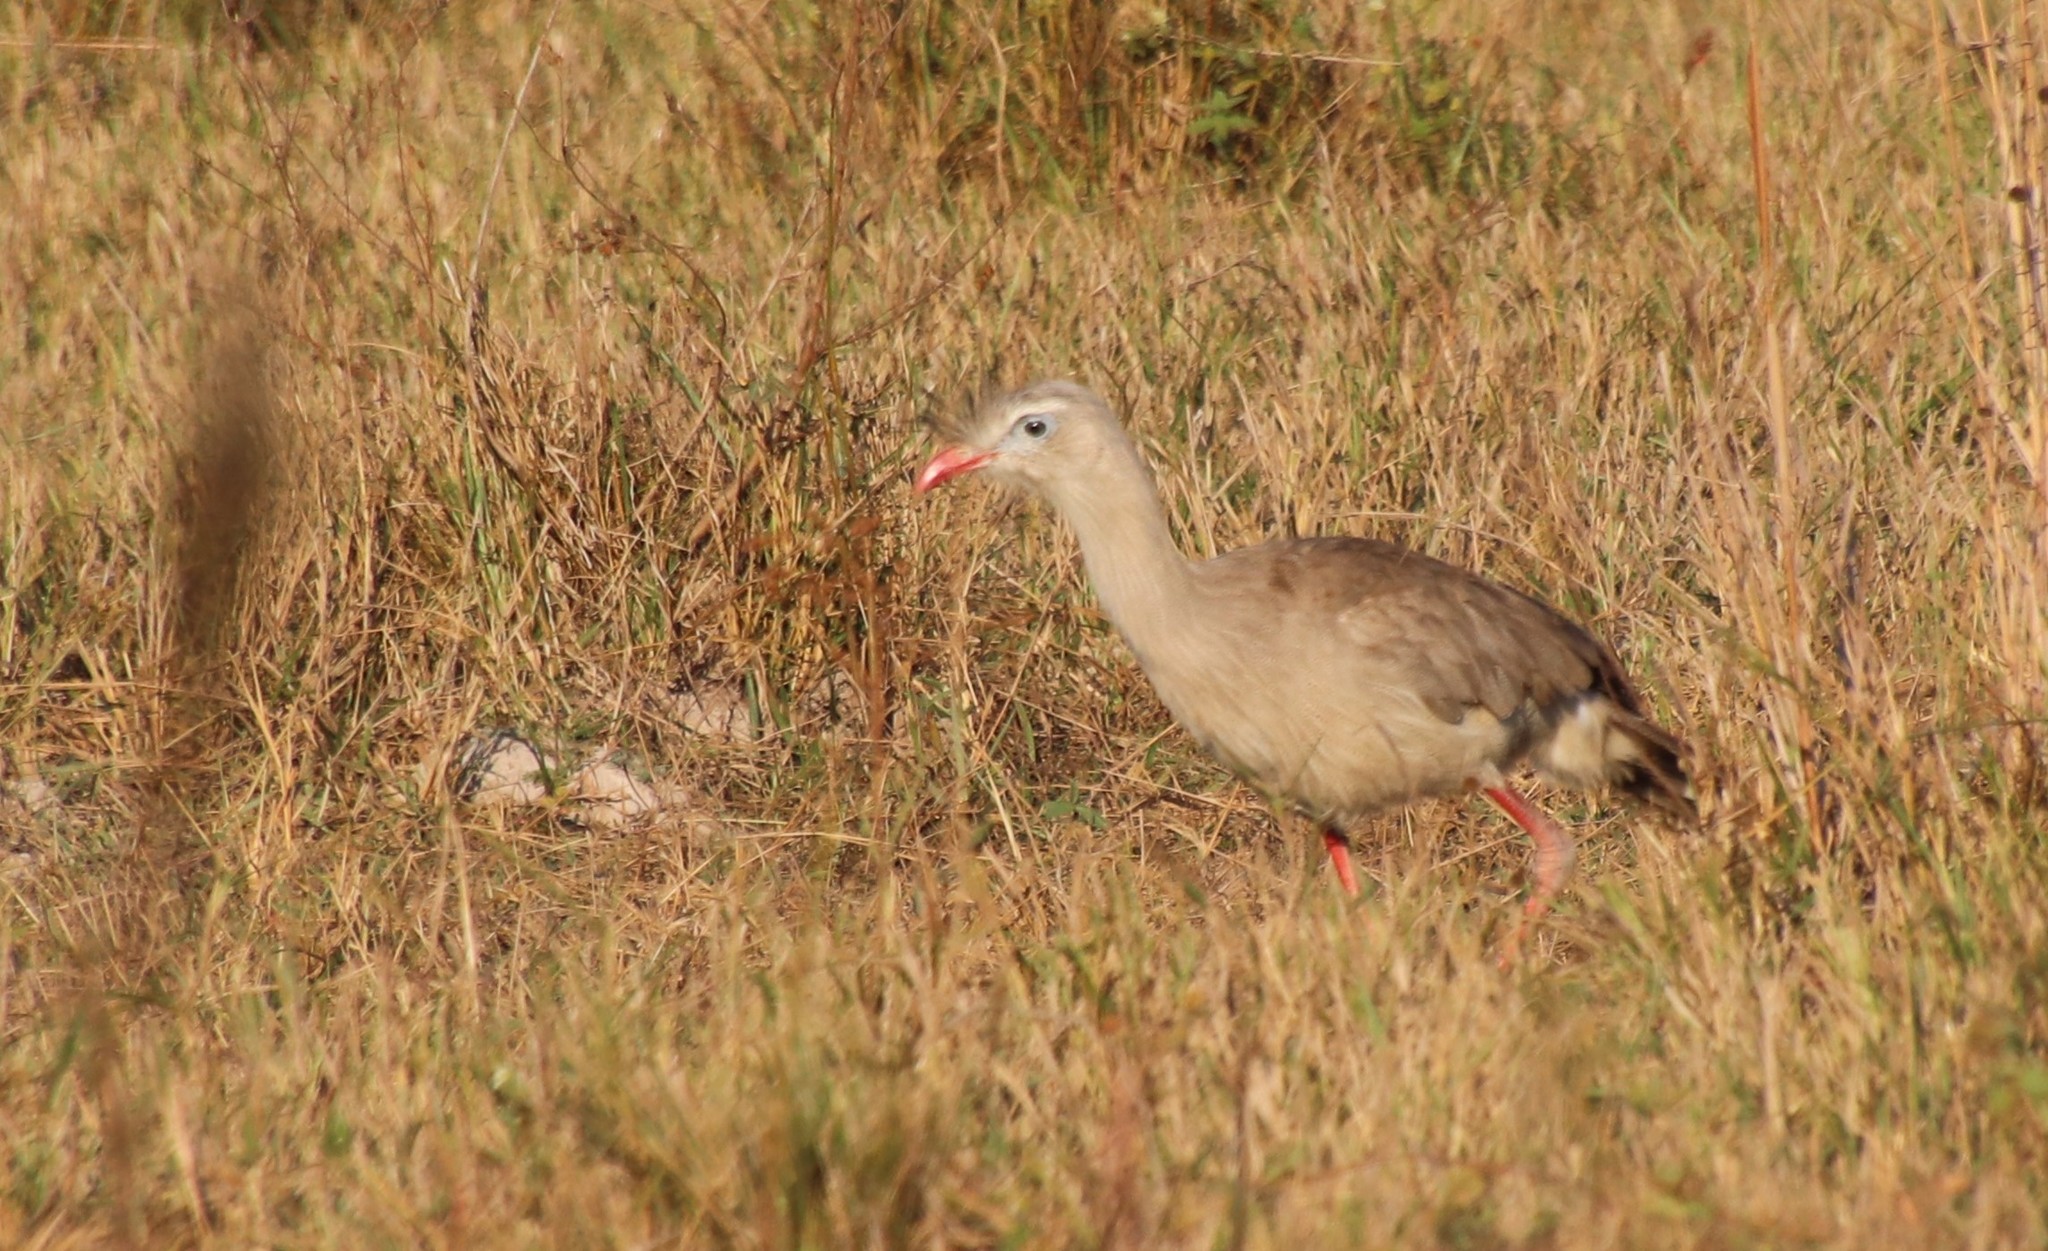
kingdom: Animalia
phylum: Chordata
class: Aves
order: Cariamiformes
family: Cariamidae
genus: Cariama
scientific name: Cariama cristata
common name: Red-legged seriema
